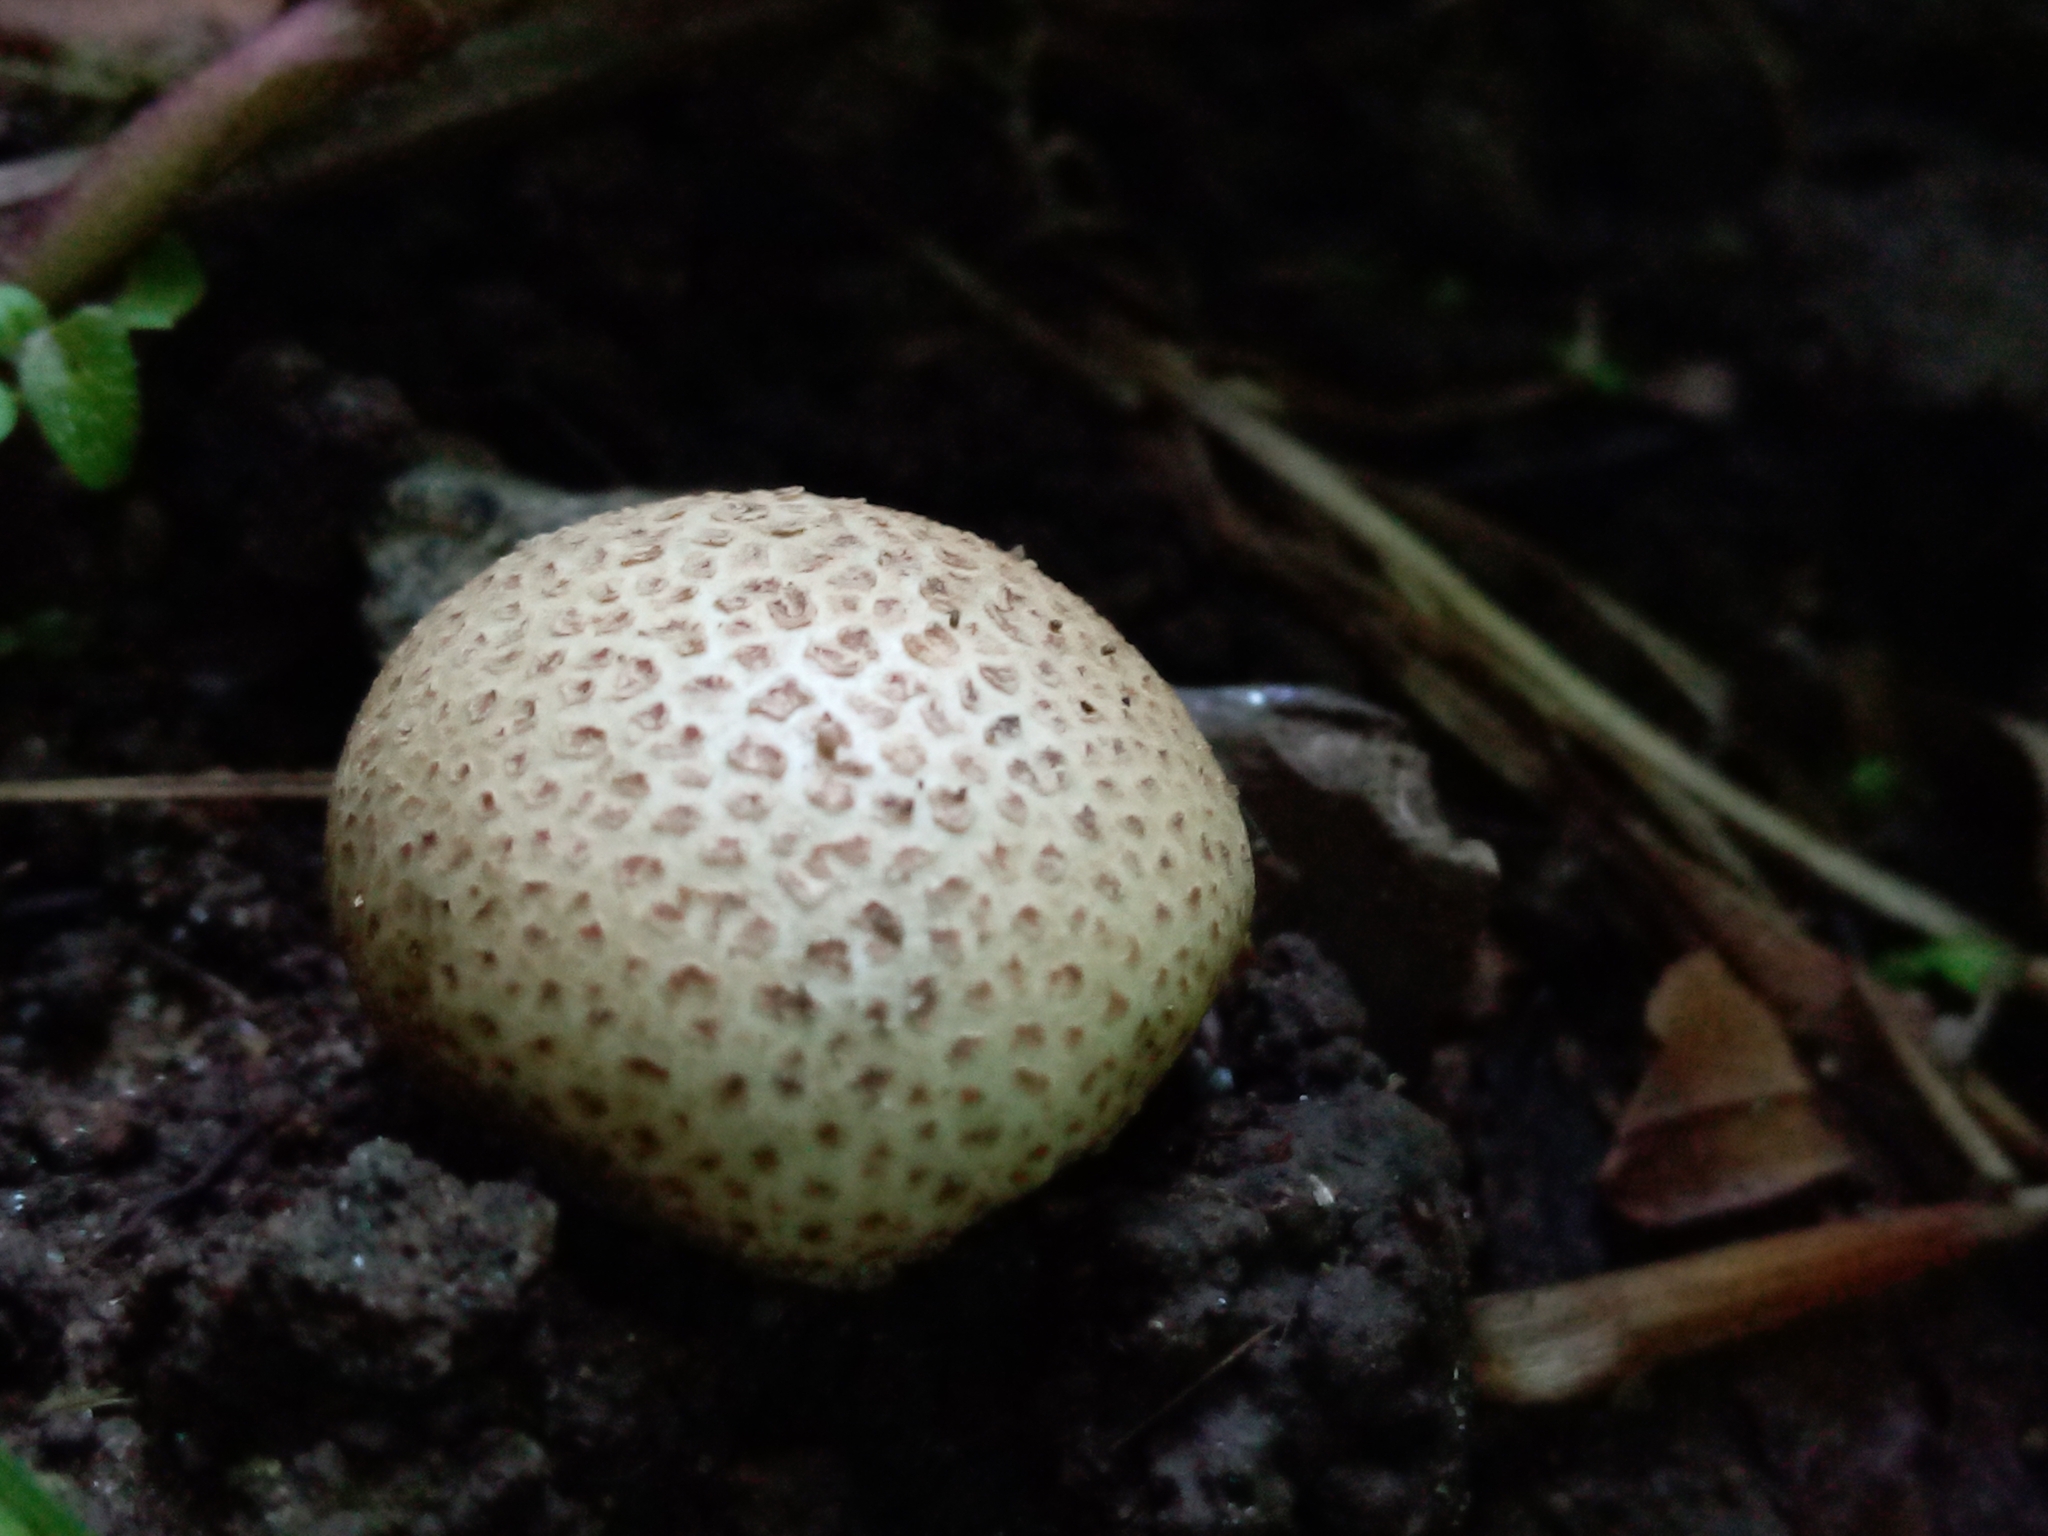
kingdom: Fungi
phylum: Basidiomycota
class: Agaricomycetes
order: Boletales
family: Sclerodermataceae
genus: Scleroderma
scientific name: Scleroderma areolatum
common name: Leopard earthball
